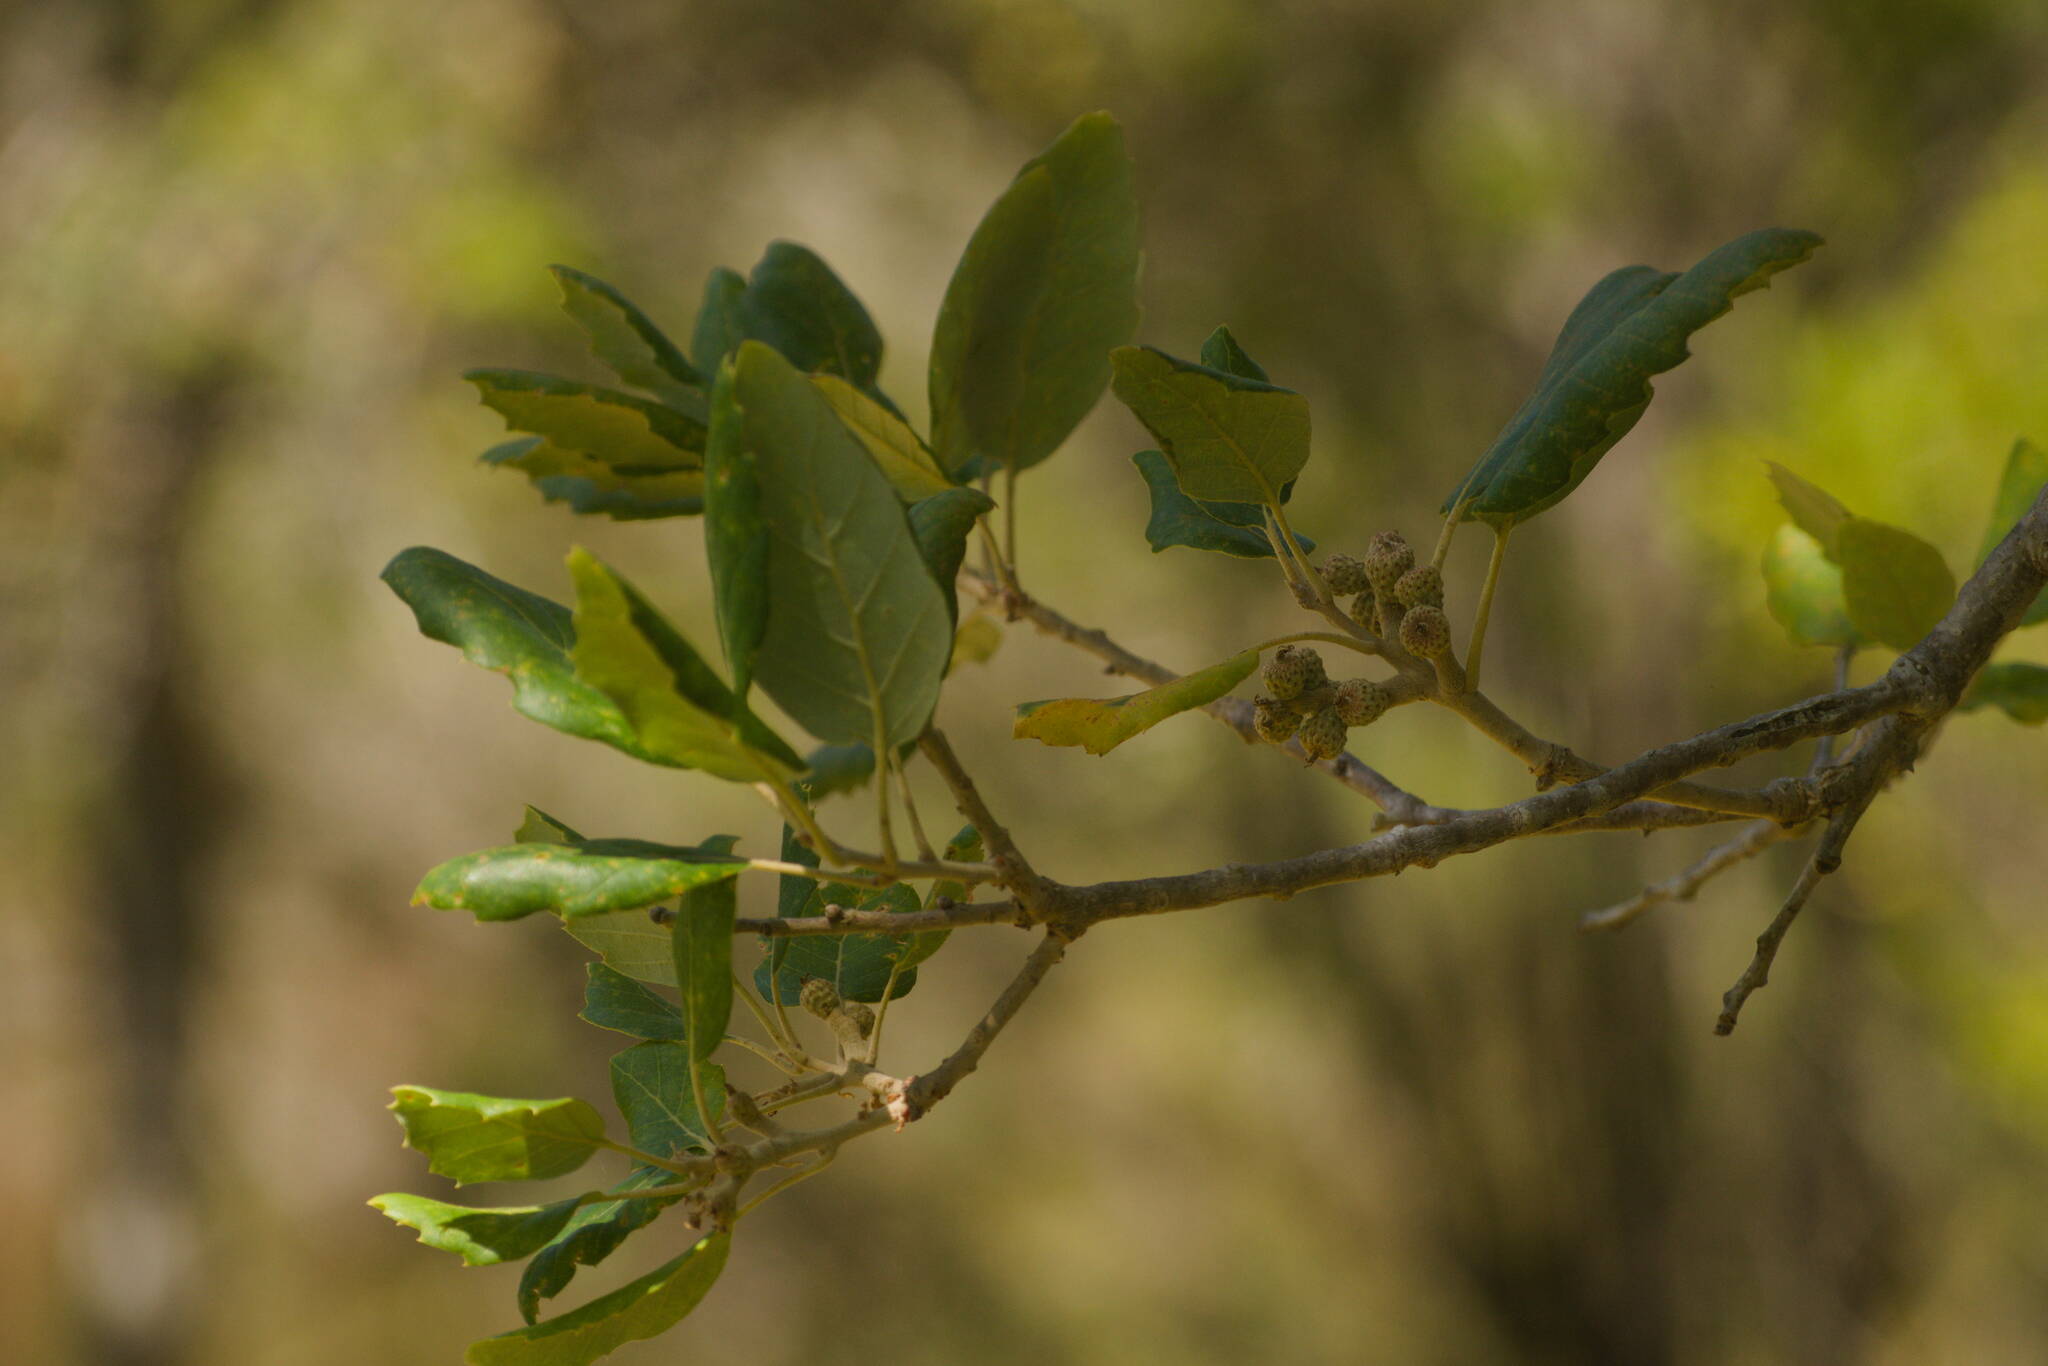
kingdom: Plantae
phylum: Tracheophyta
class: Magnoliopsida
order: Fagales
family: Fagaceae
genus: Quercus
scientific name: Quercus suber
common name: Cork oak
